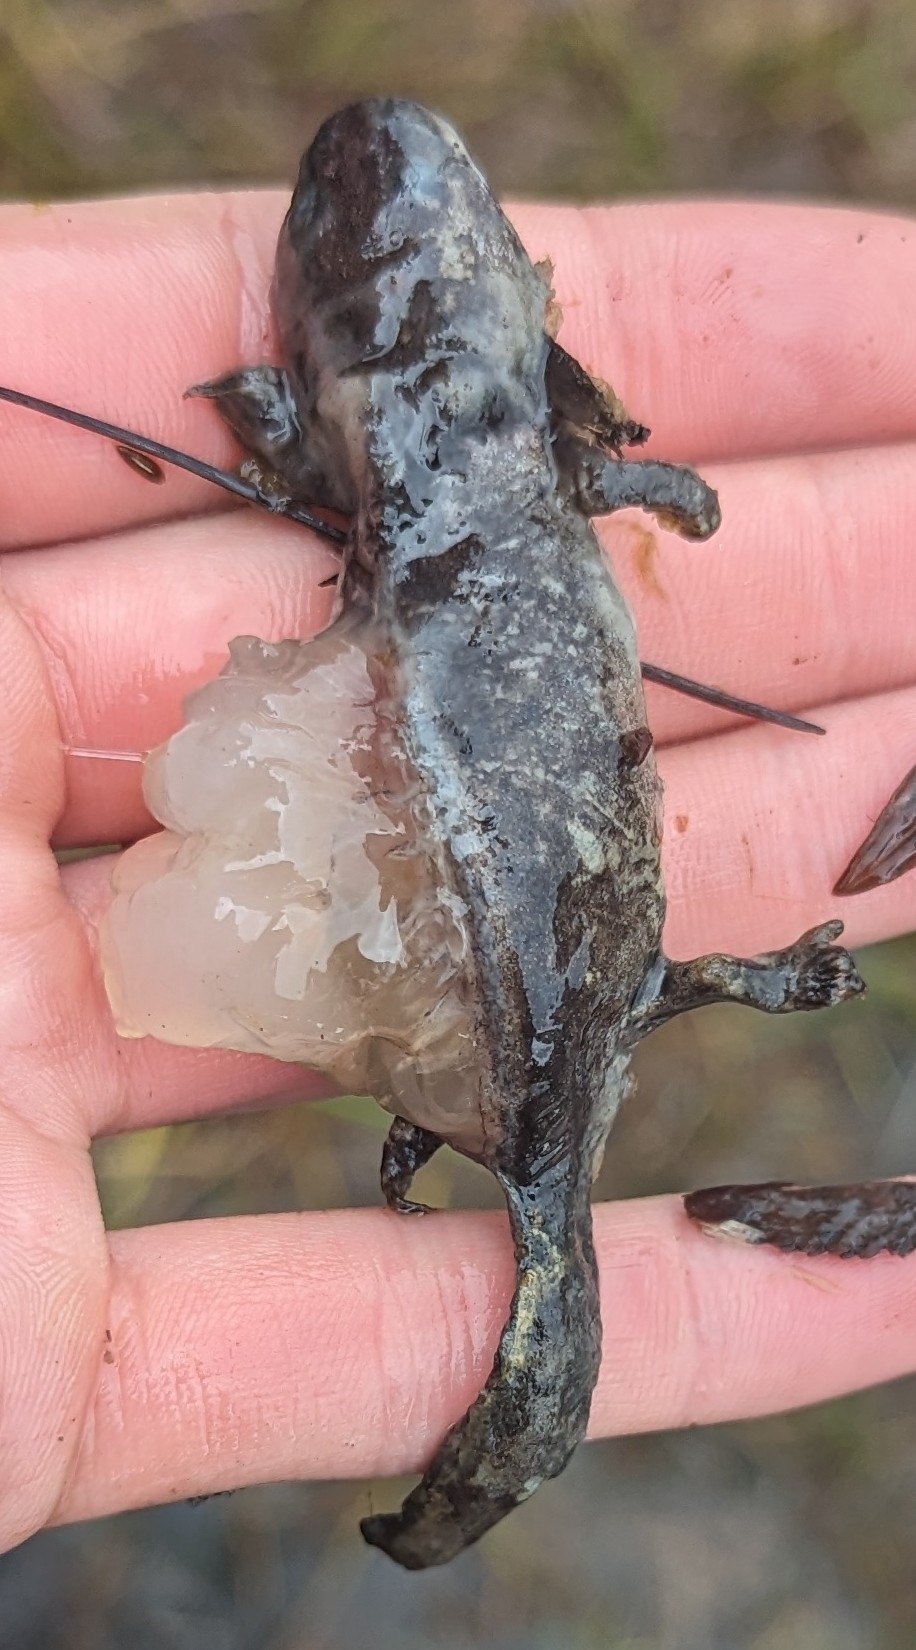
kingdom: Animalia
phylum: Chordata
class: Amphibia
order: Caudata
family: Ambystomatidae
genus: Ambystoma
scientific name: Ambystoma gracile
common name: Northwestern salamander
